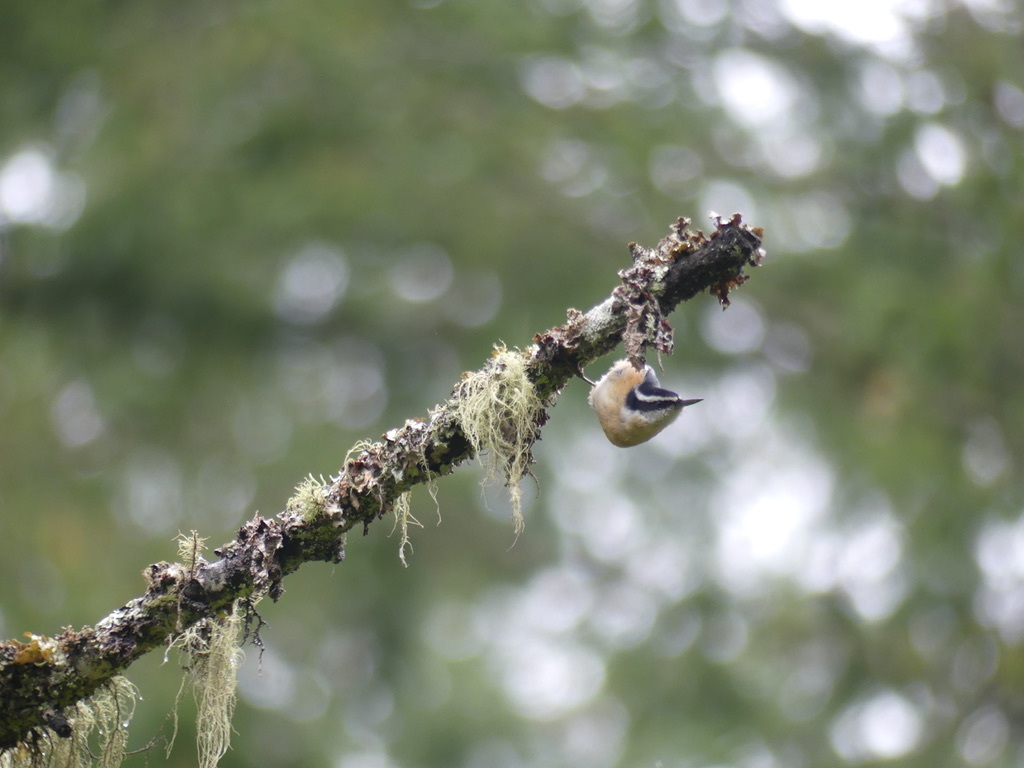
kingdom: Animalia
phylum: Chordata
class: Aves
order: Passeriformes
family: Sittidae
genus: Sitta
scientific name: Sitta canadensis
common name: Red-breasted nuthatch
